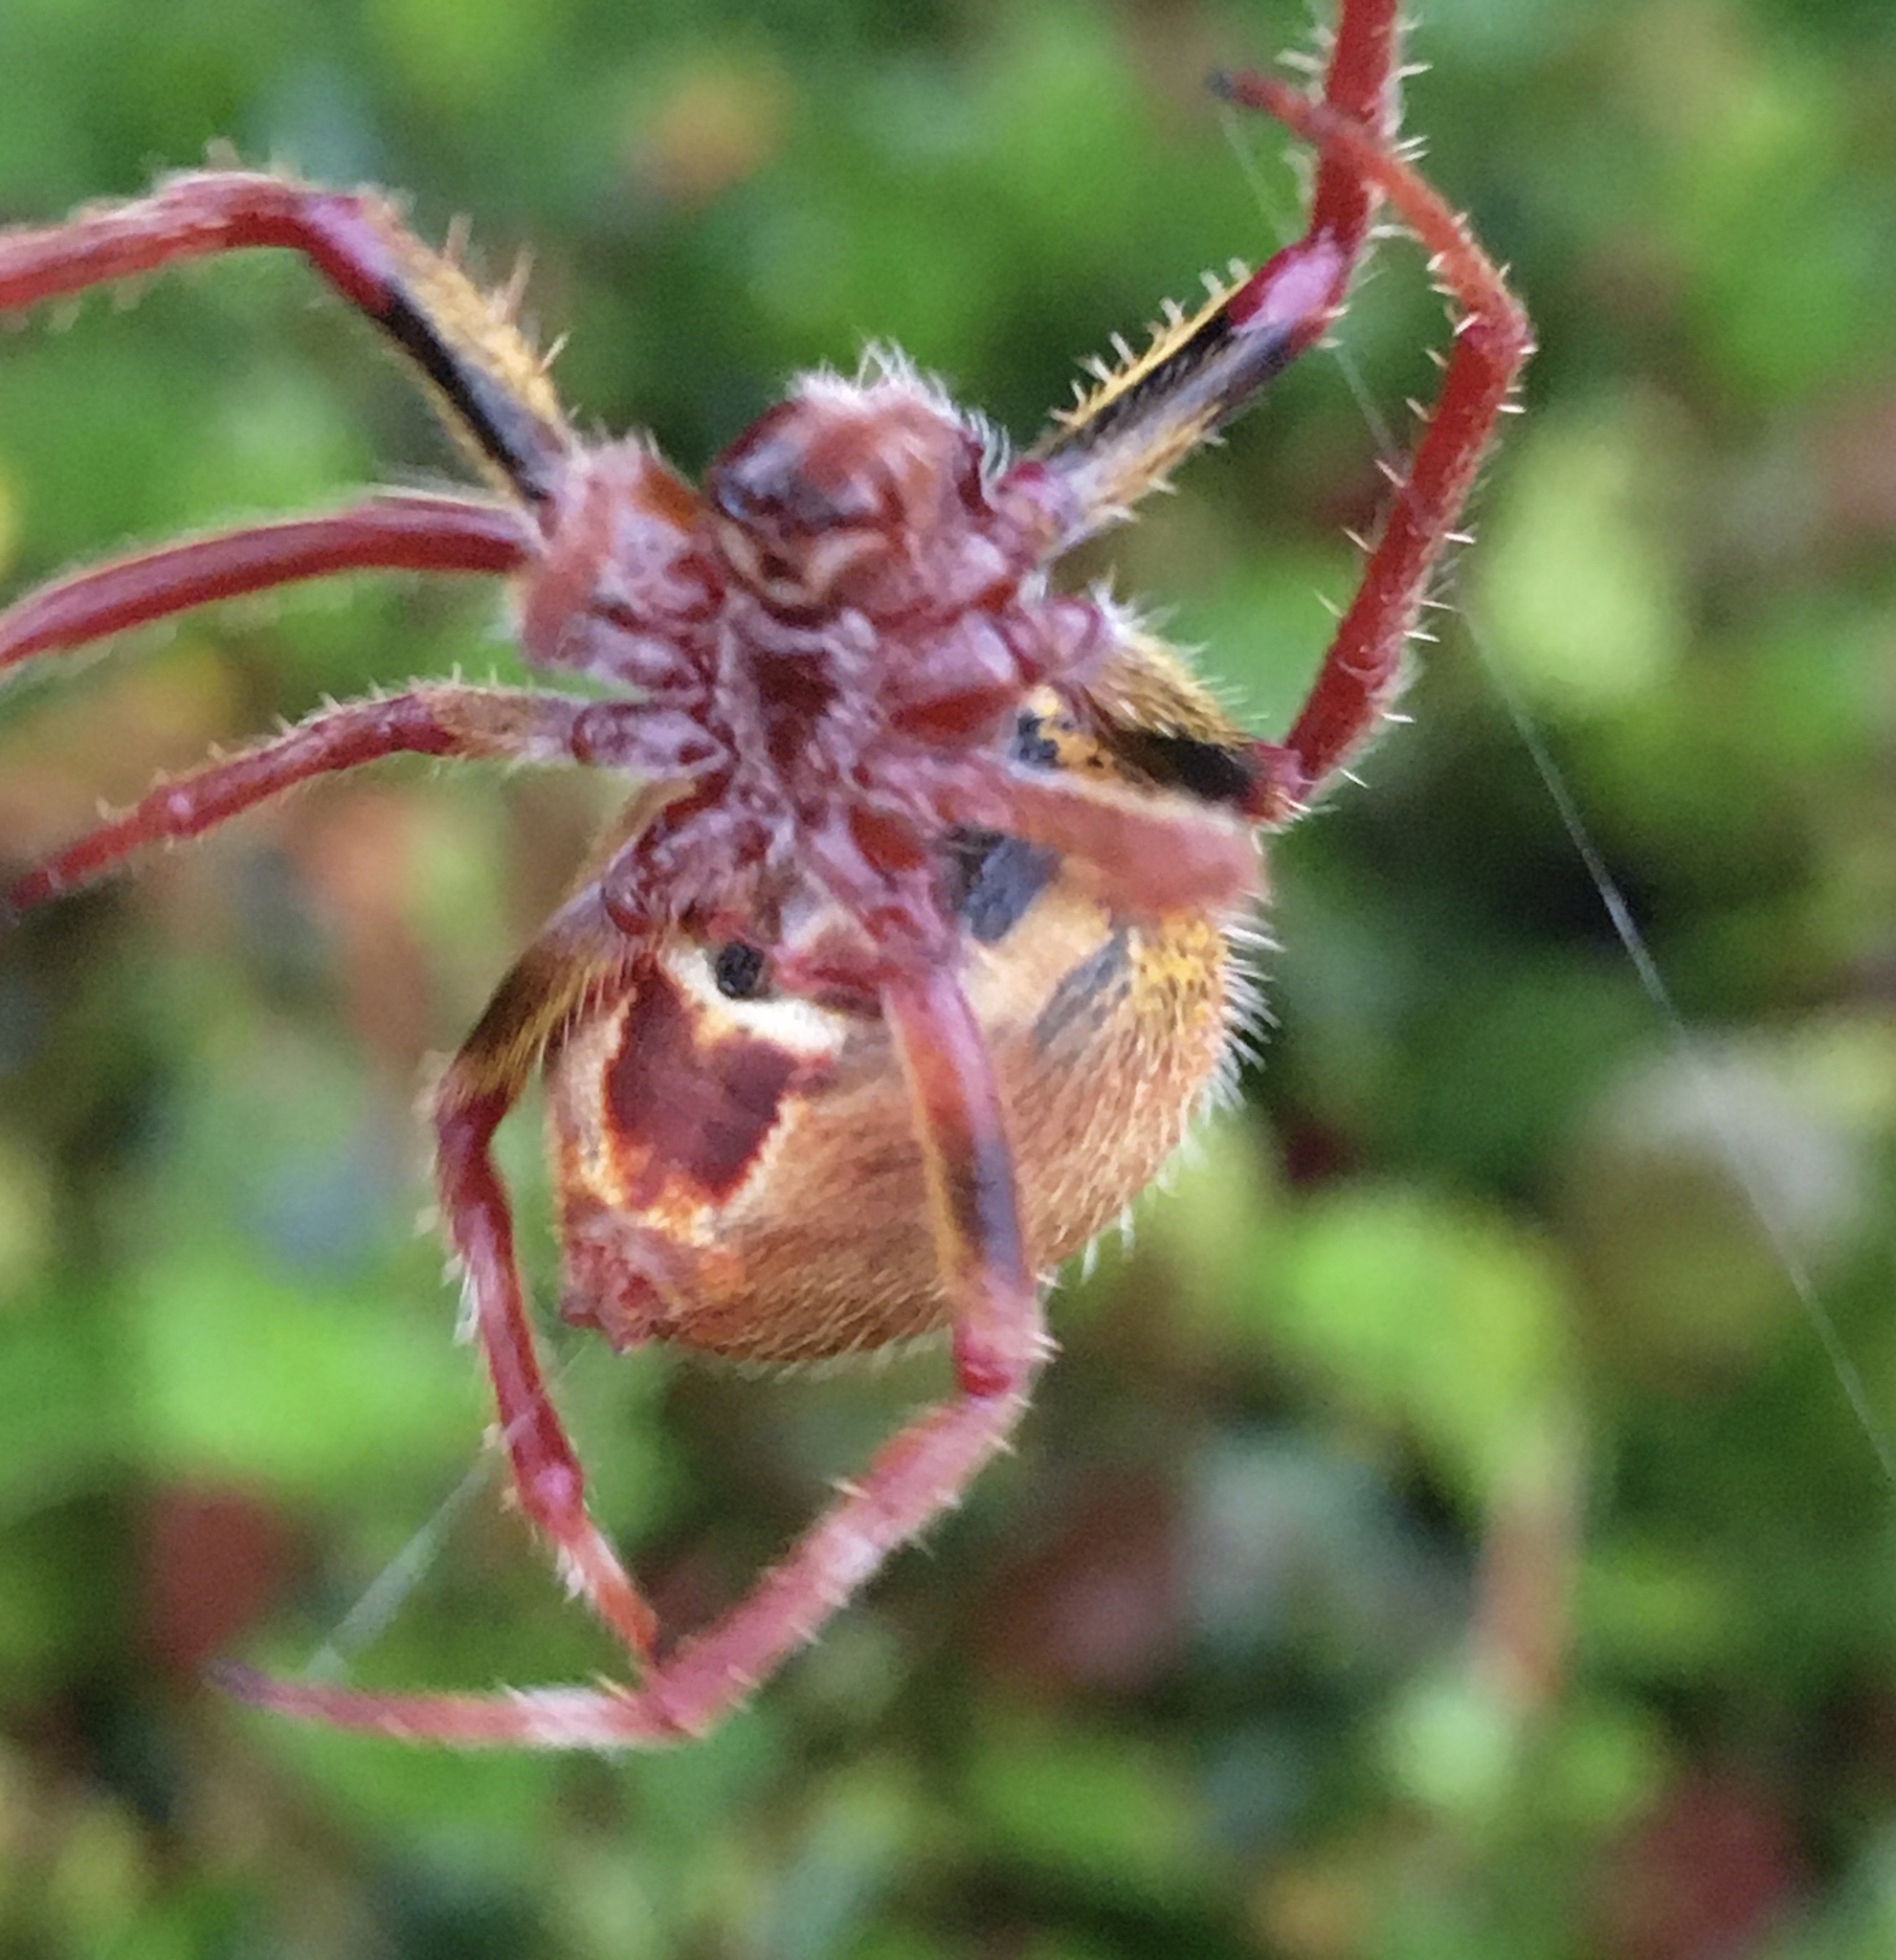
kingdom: Animalia
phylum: Arthropoda
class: Arachnida
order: Araneae
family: Araneidae
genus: Eriophora
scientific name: Eriophora ravilla
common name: Orb weavers
